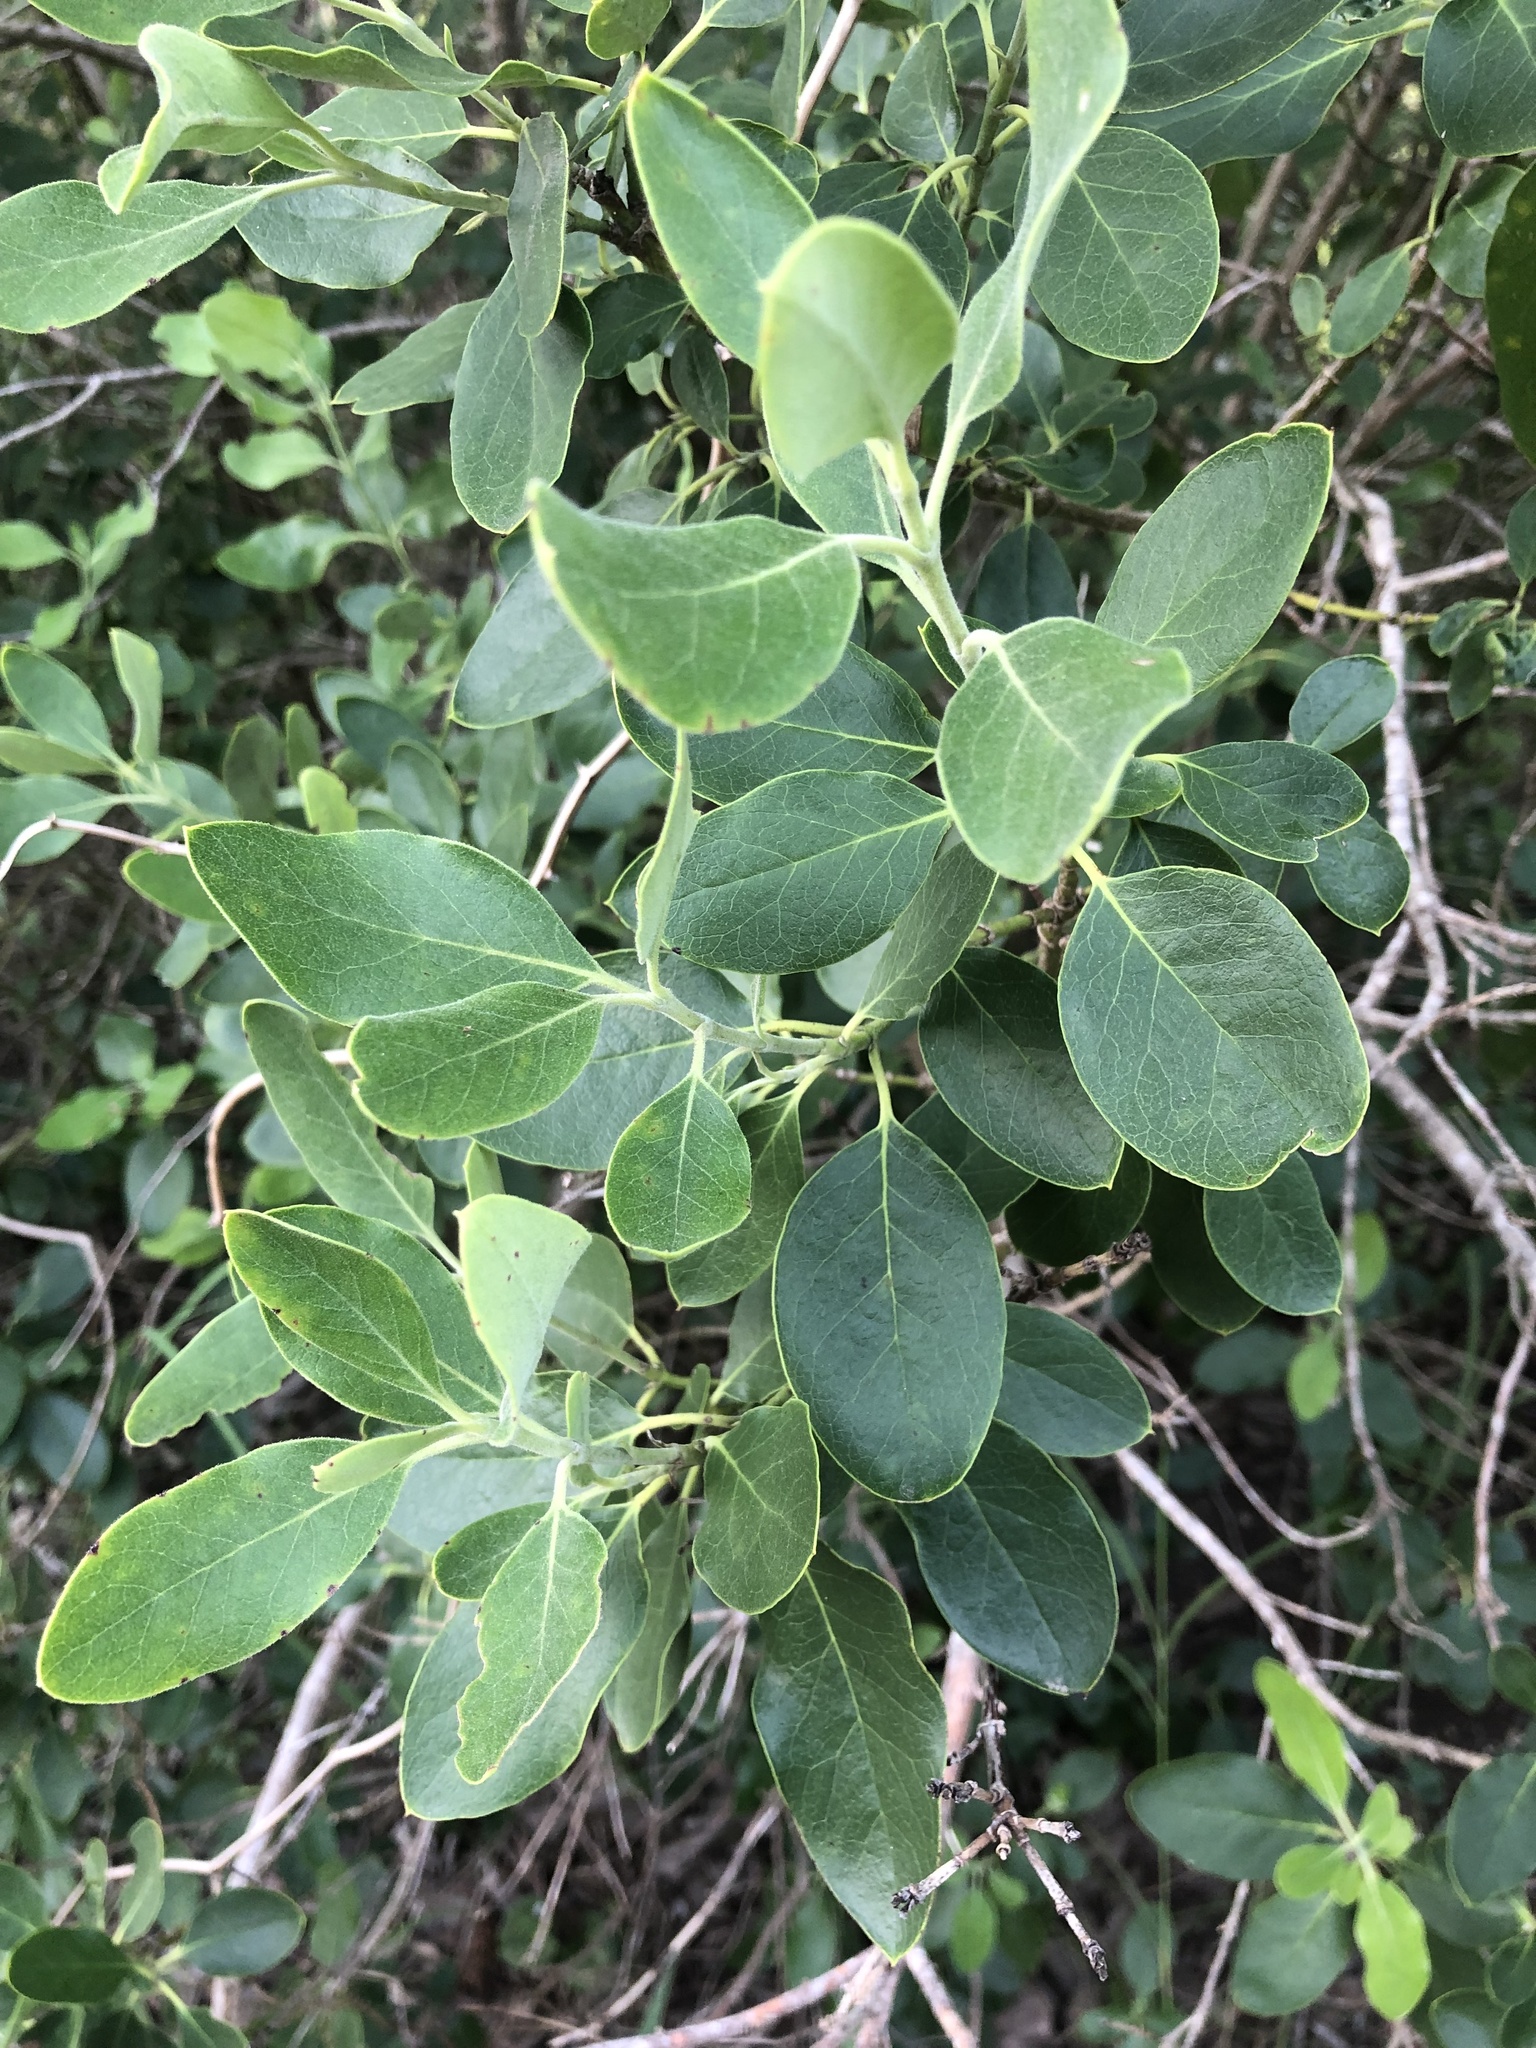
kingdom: Plantae
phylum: Tracheophyta
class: Magnoliopsida
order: Garryales
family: Garryaceae
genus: Garrya
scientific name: Garrya lindheimeri
